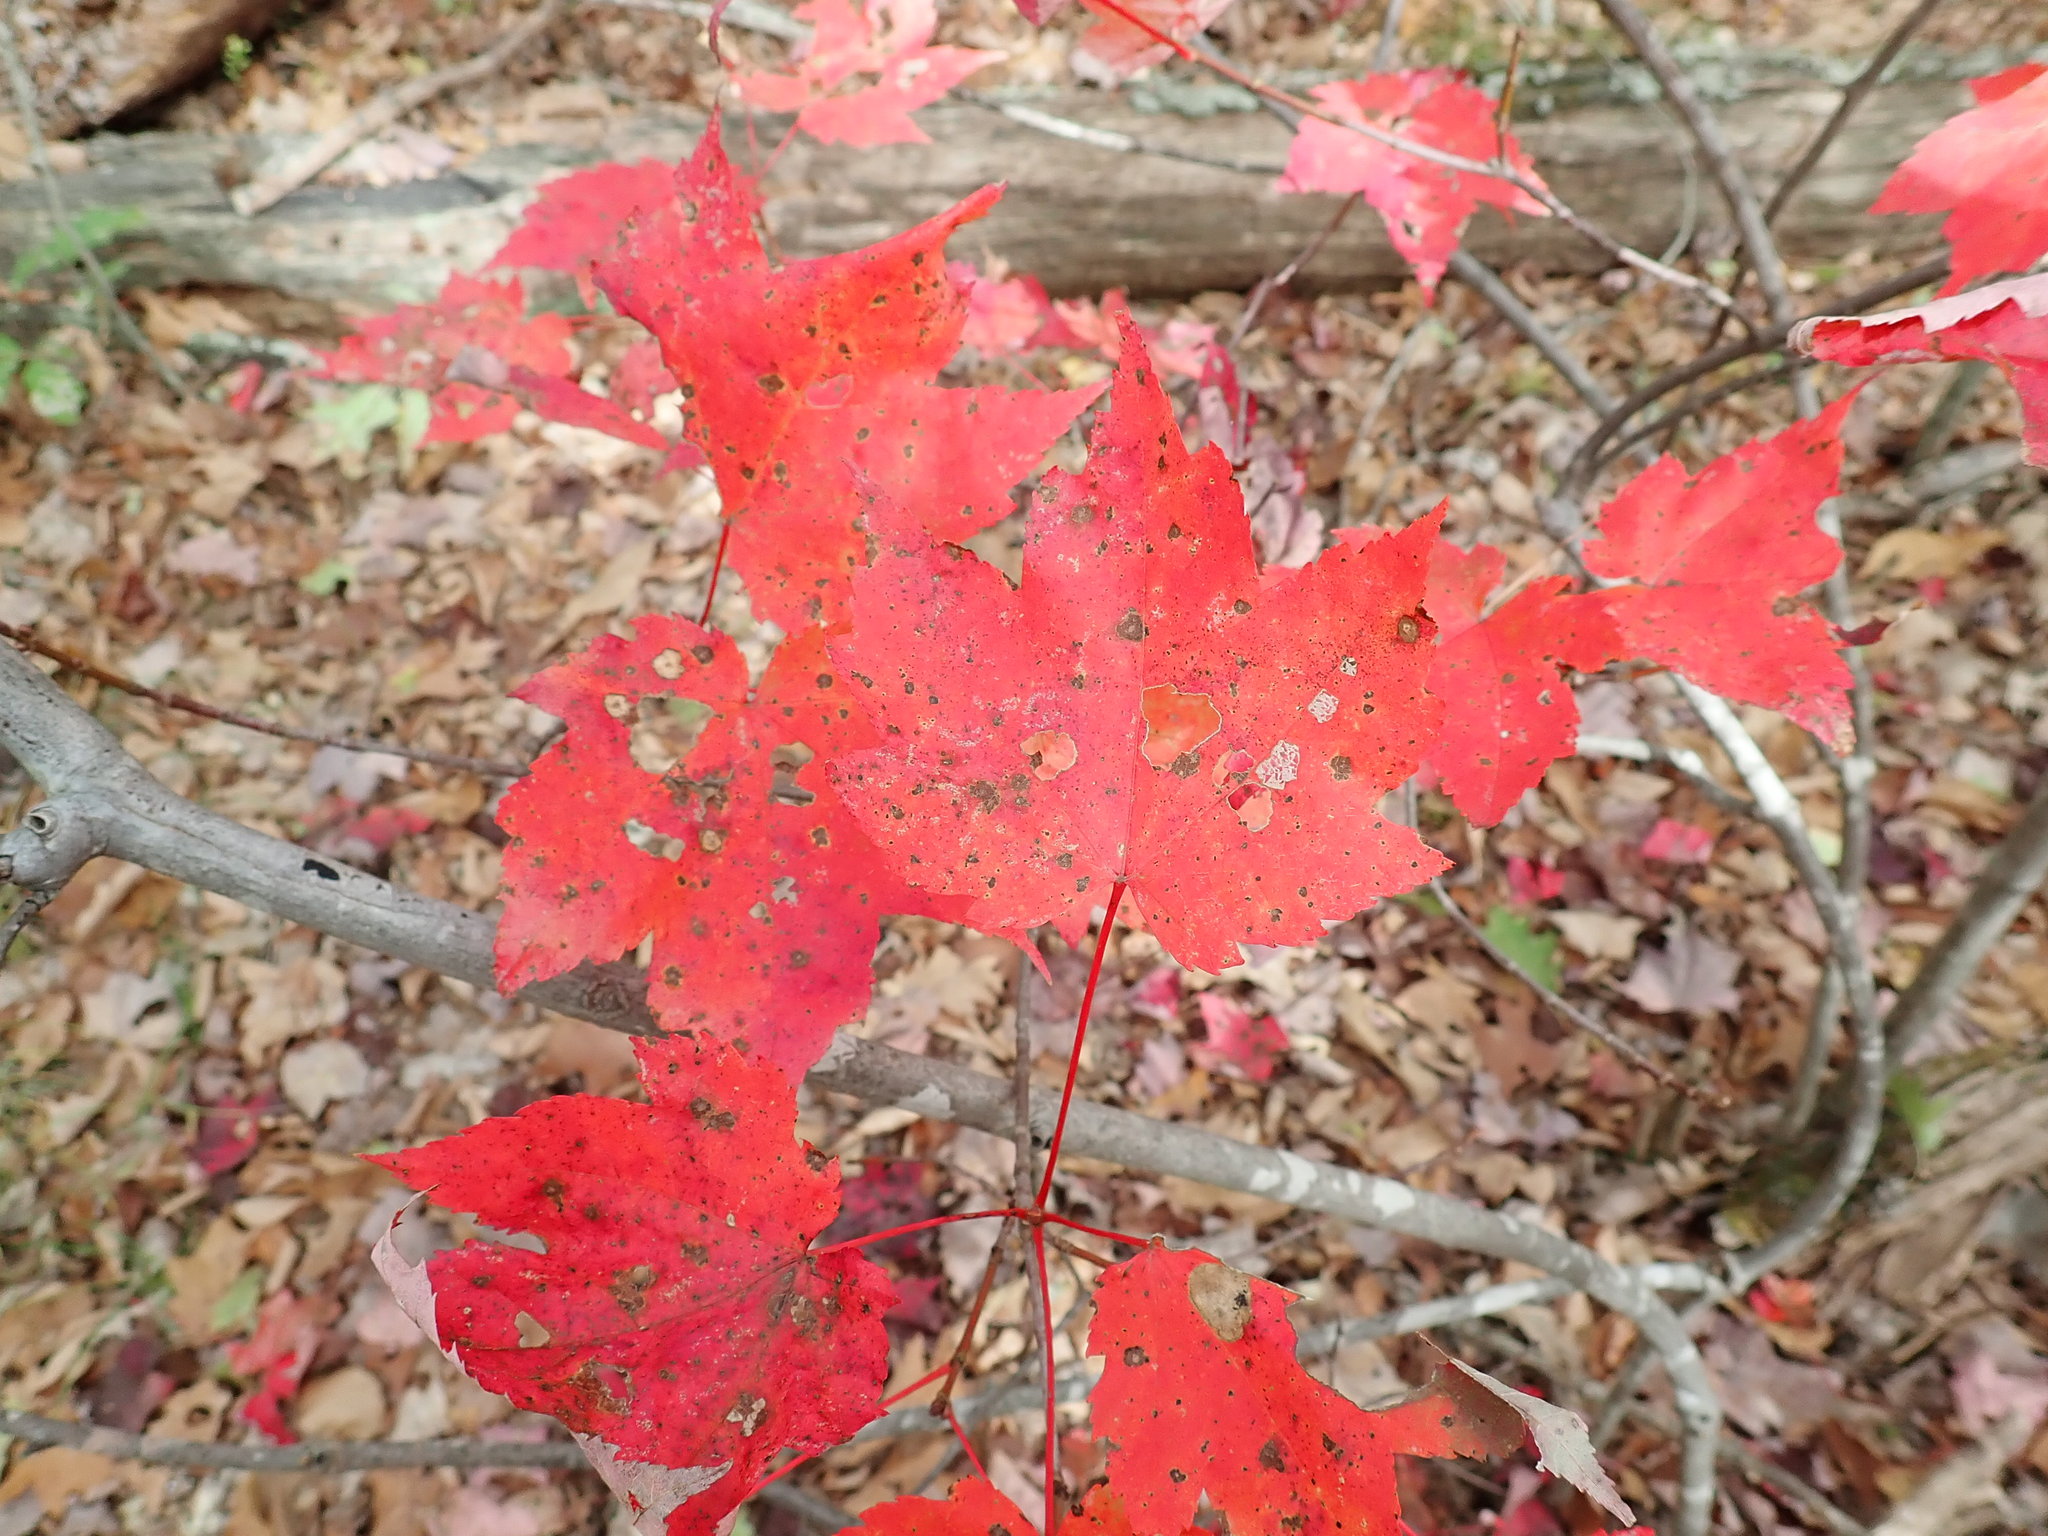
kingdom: Plantae
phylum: Tracheophyta
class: Magnoliopsida
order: Sapindales
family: Sapindaceae
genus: Acer
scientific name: Acer rubrum
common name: Red maple
